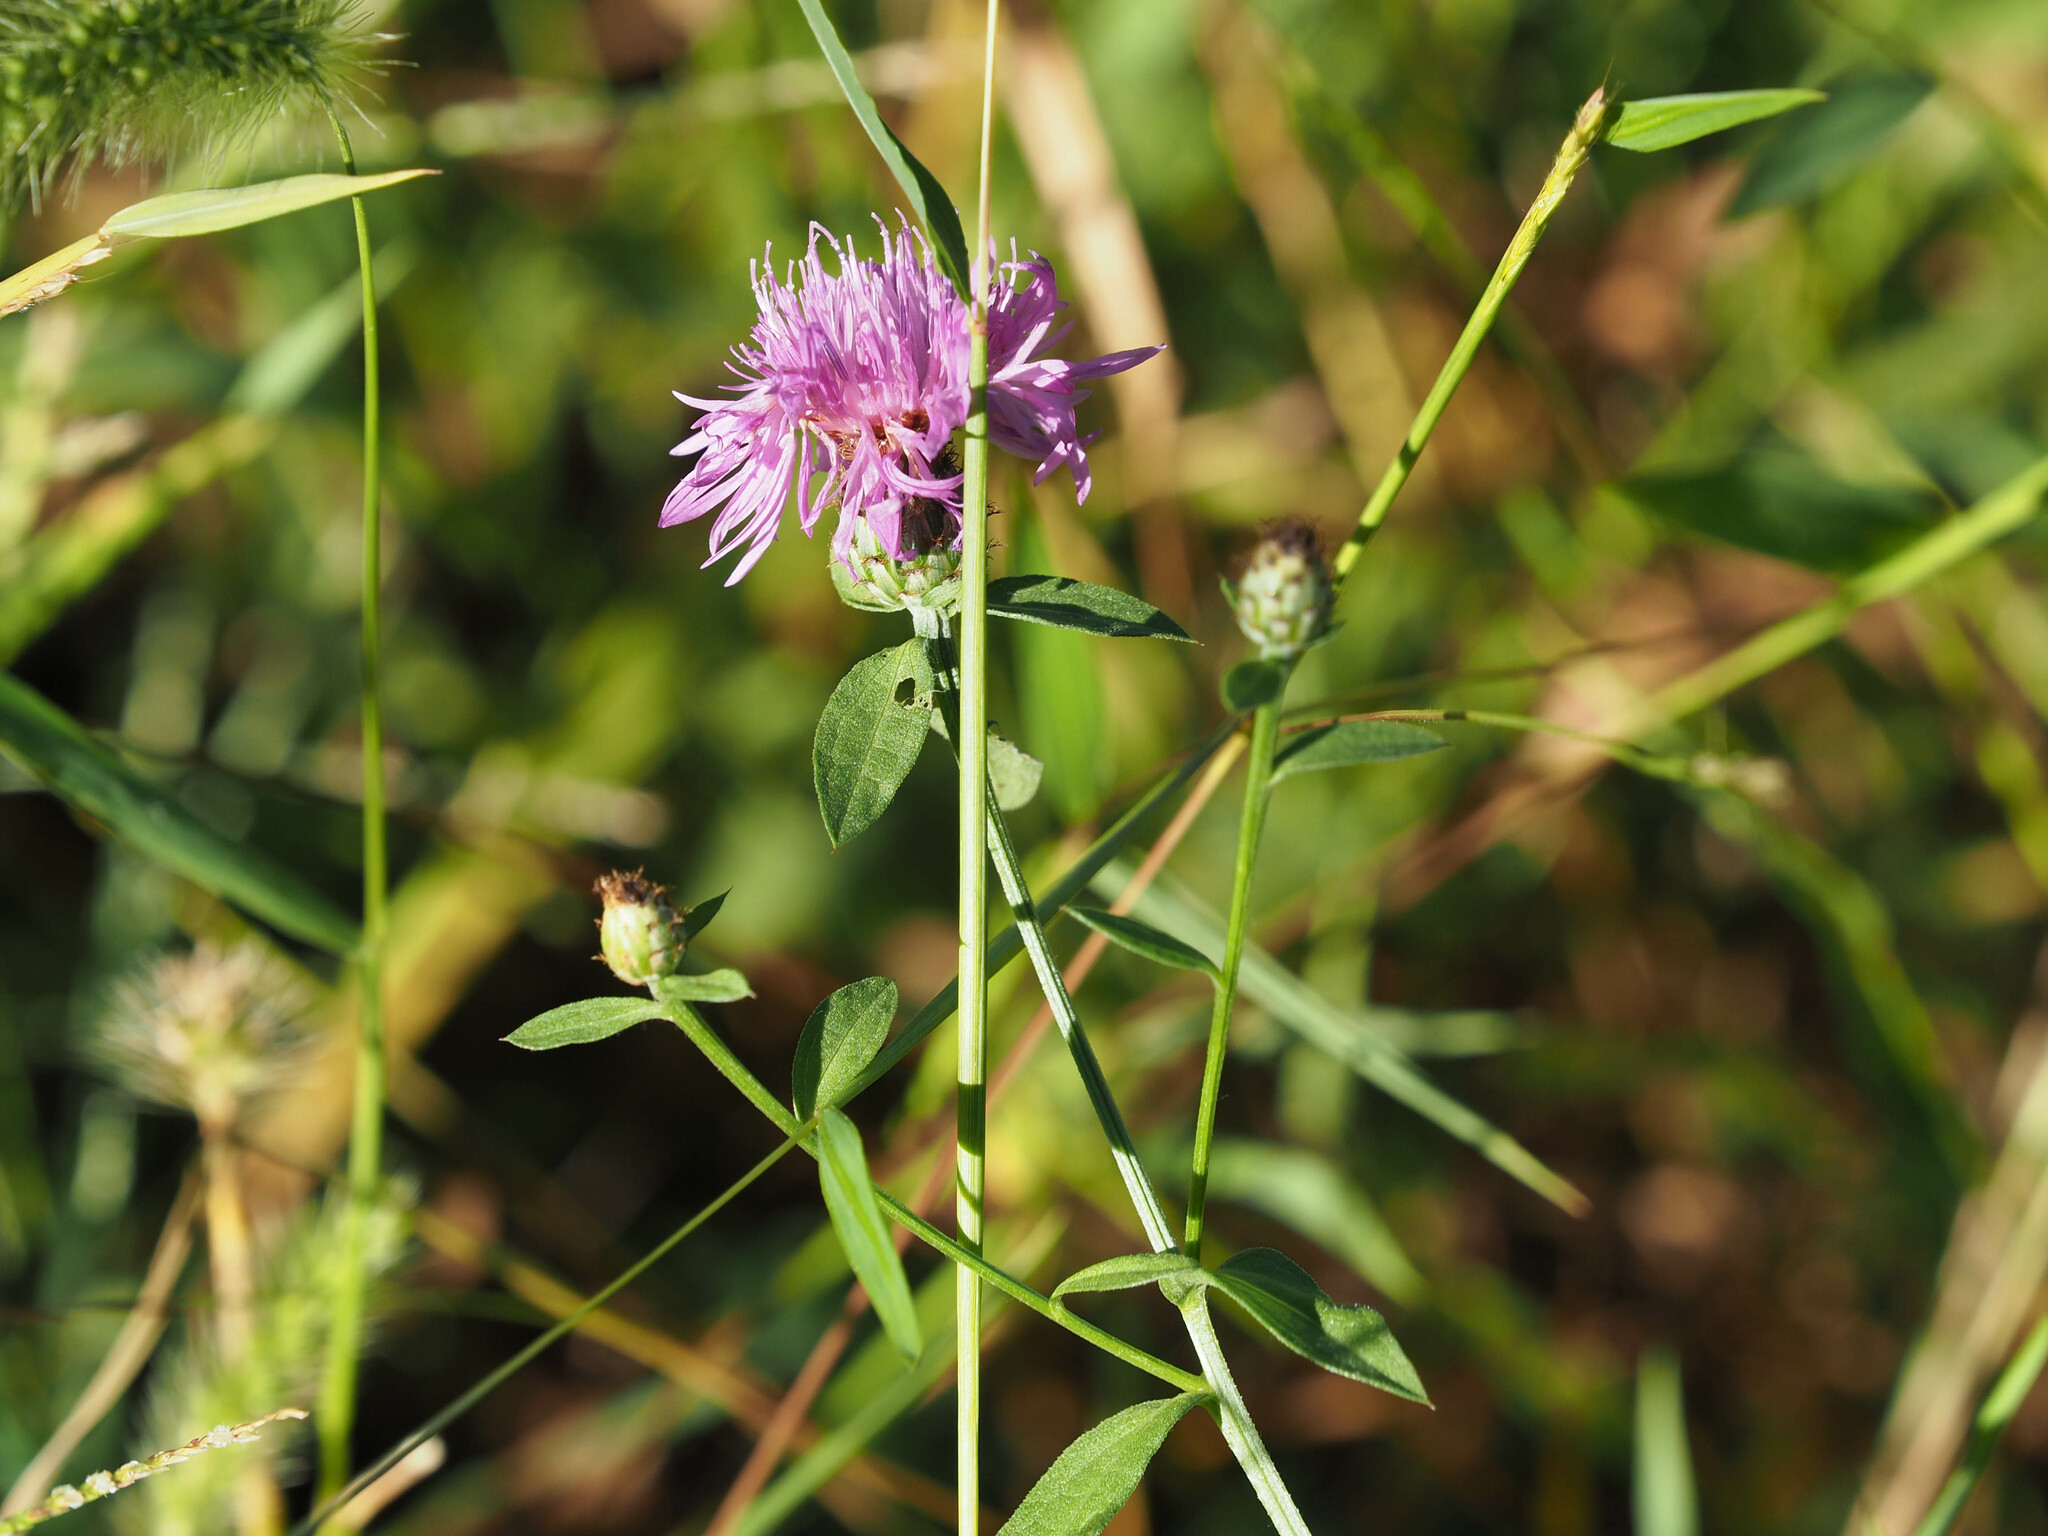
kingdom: Plantae
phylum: Tracheophyta
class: Magnoliopsida
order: Asterales
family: Asteraceae
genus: Centaurea
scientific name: Centaurea nigrescens
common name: Tyrol knapweed
